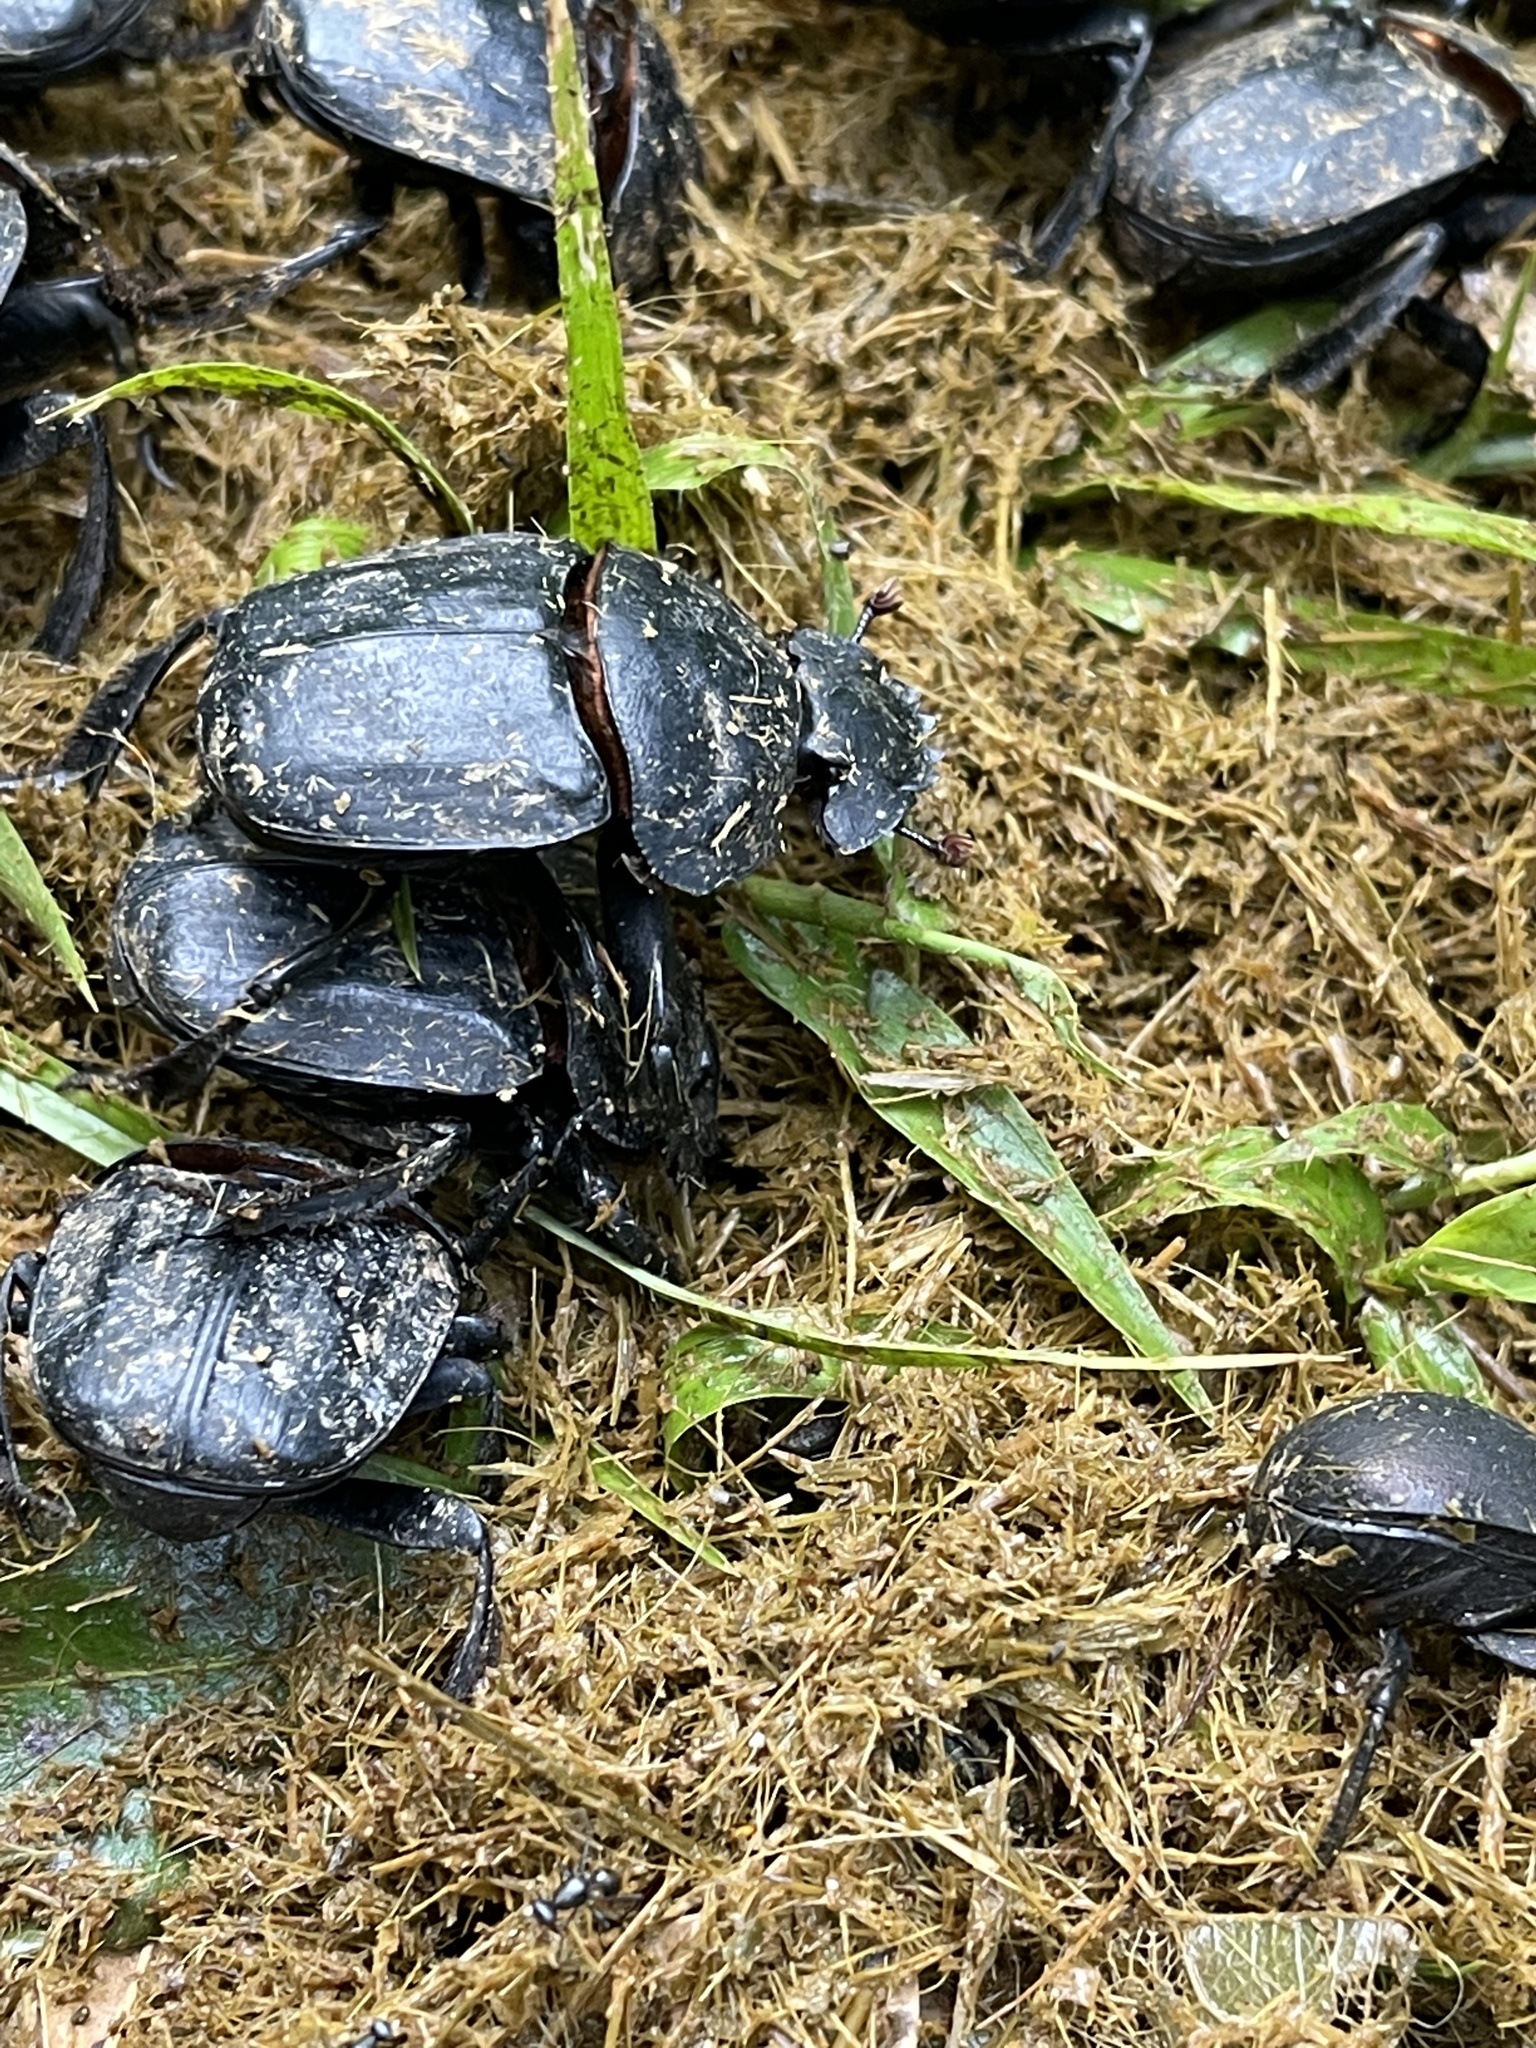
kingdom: Animalia
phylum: Arthropoda
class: Insecta
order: Coleoptera
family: Scarabaeidae
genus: Pachylomera
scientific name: Pachylomera femoralis
